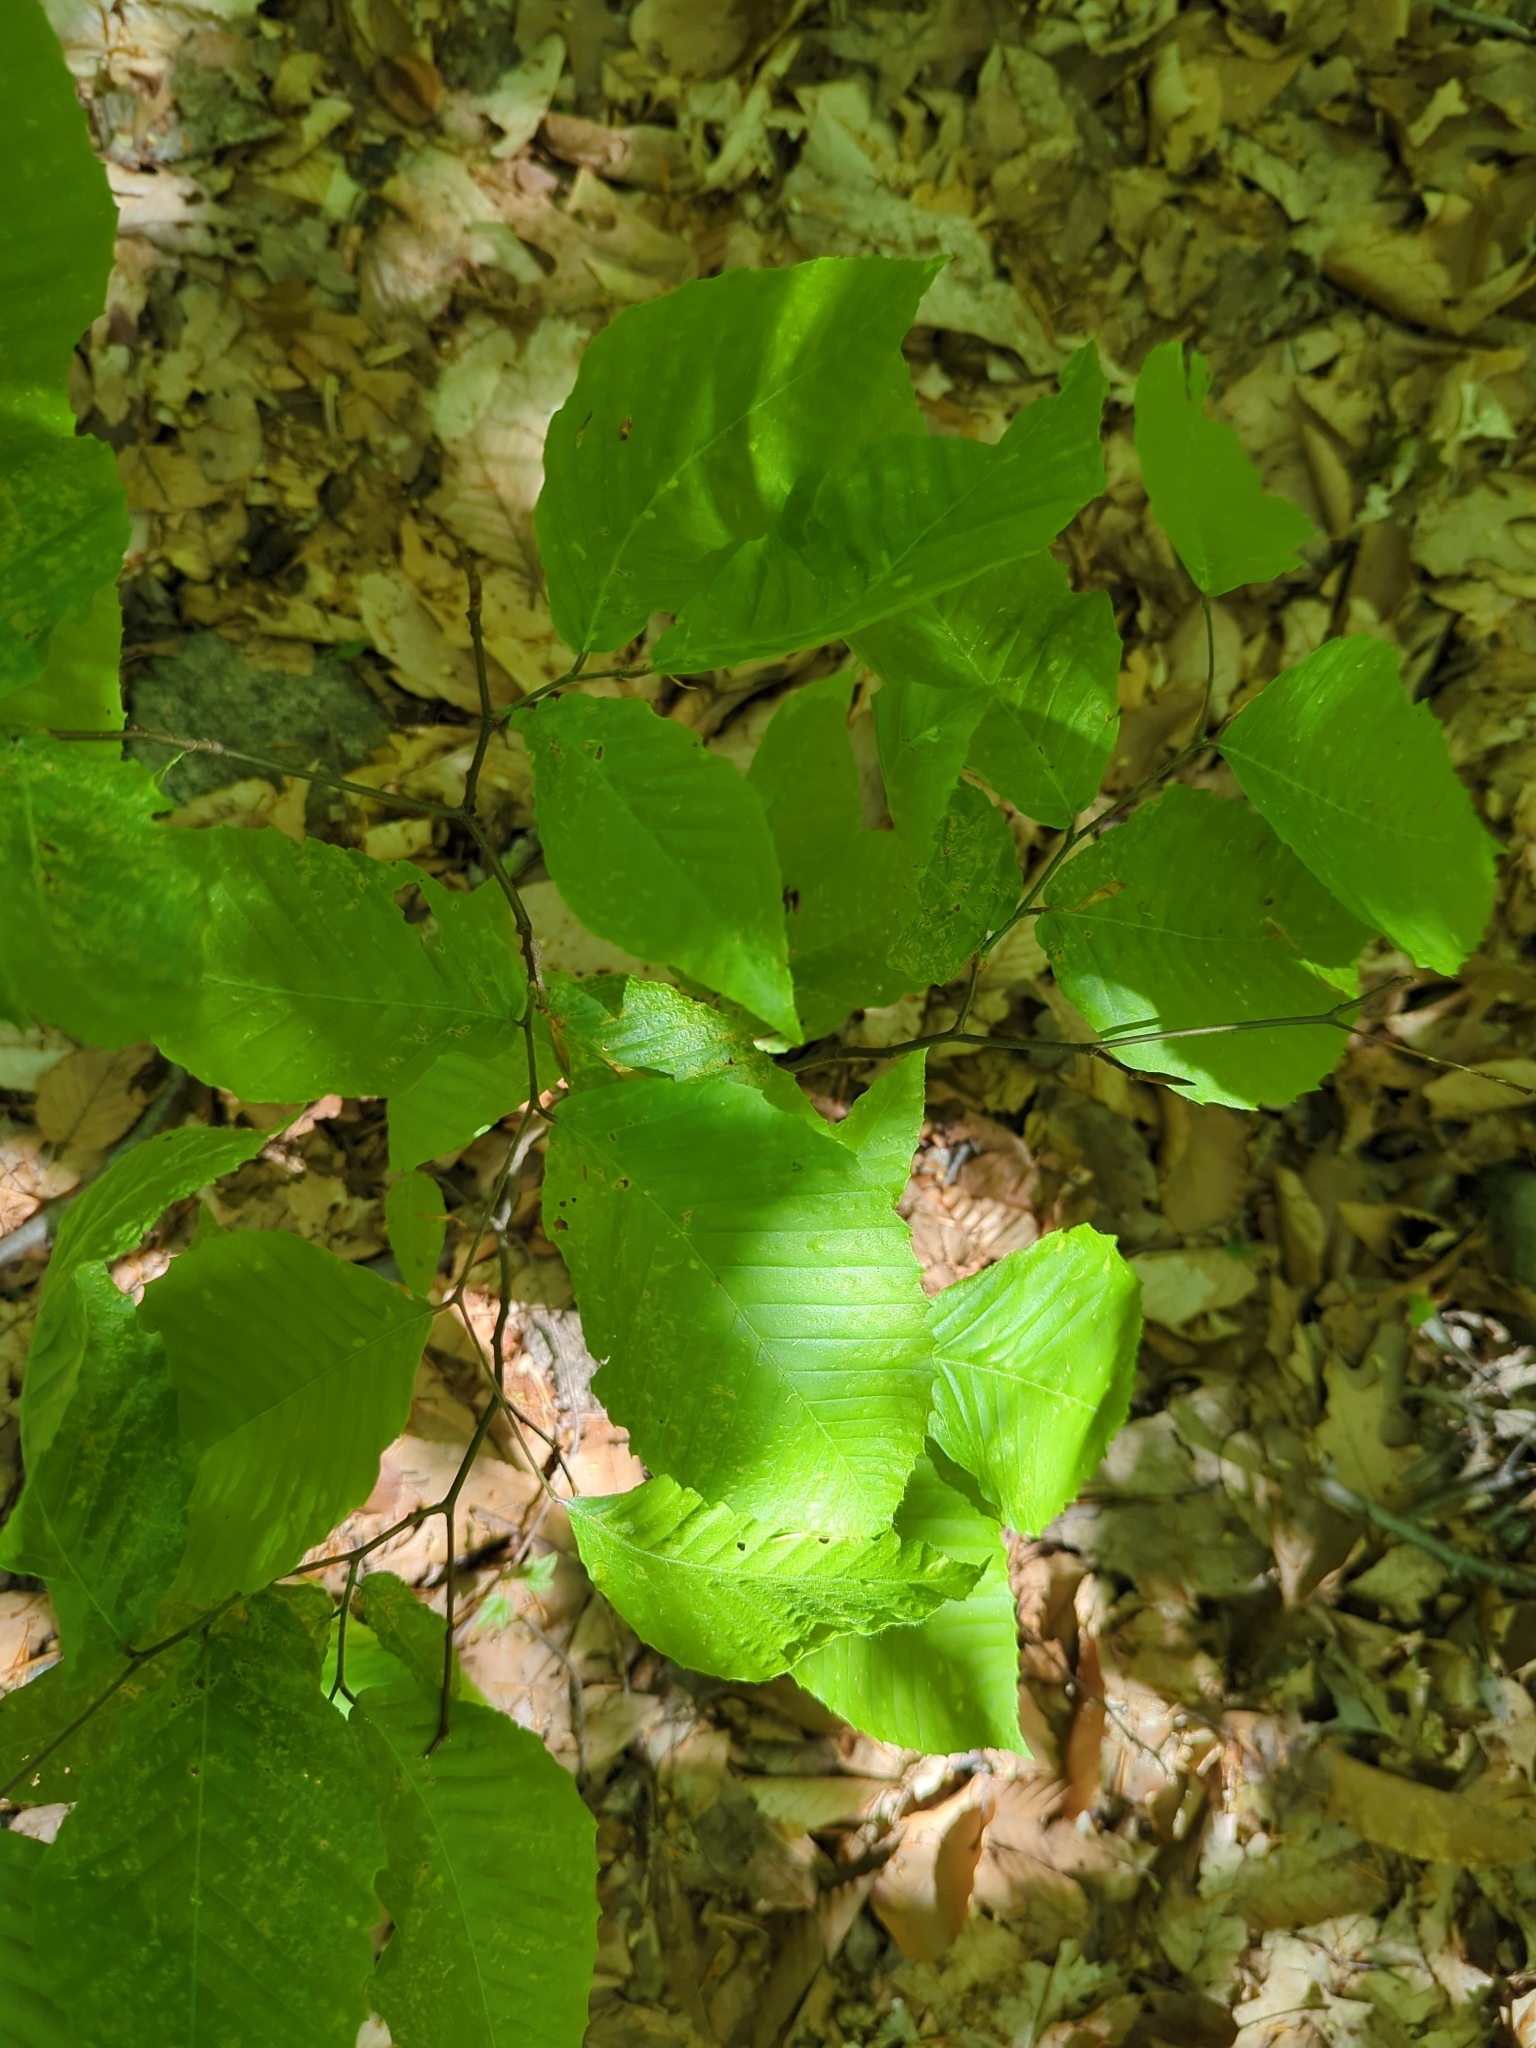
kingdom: Plantae
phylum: Tracheophyta
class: Magnoliopsida
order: Fagales
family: Fagaceae
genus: Fagus
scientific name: Fagus grandifolia
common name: American beech
